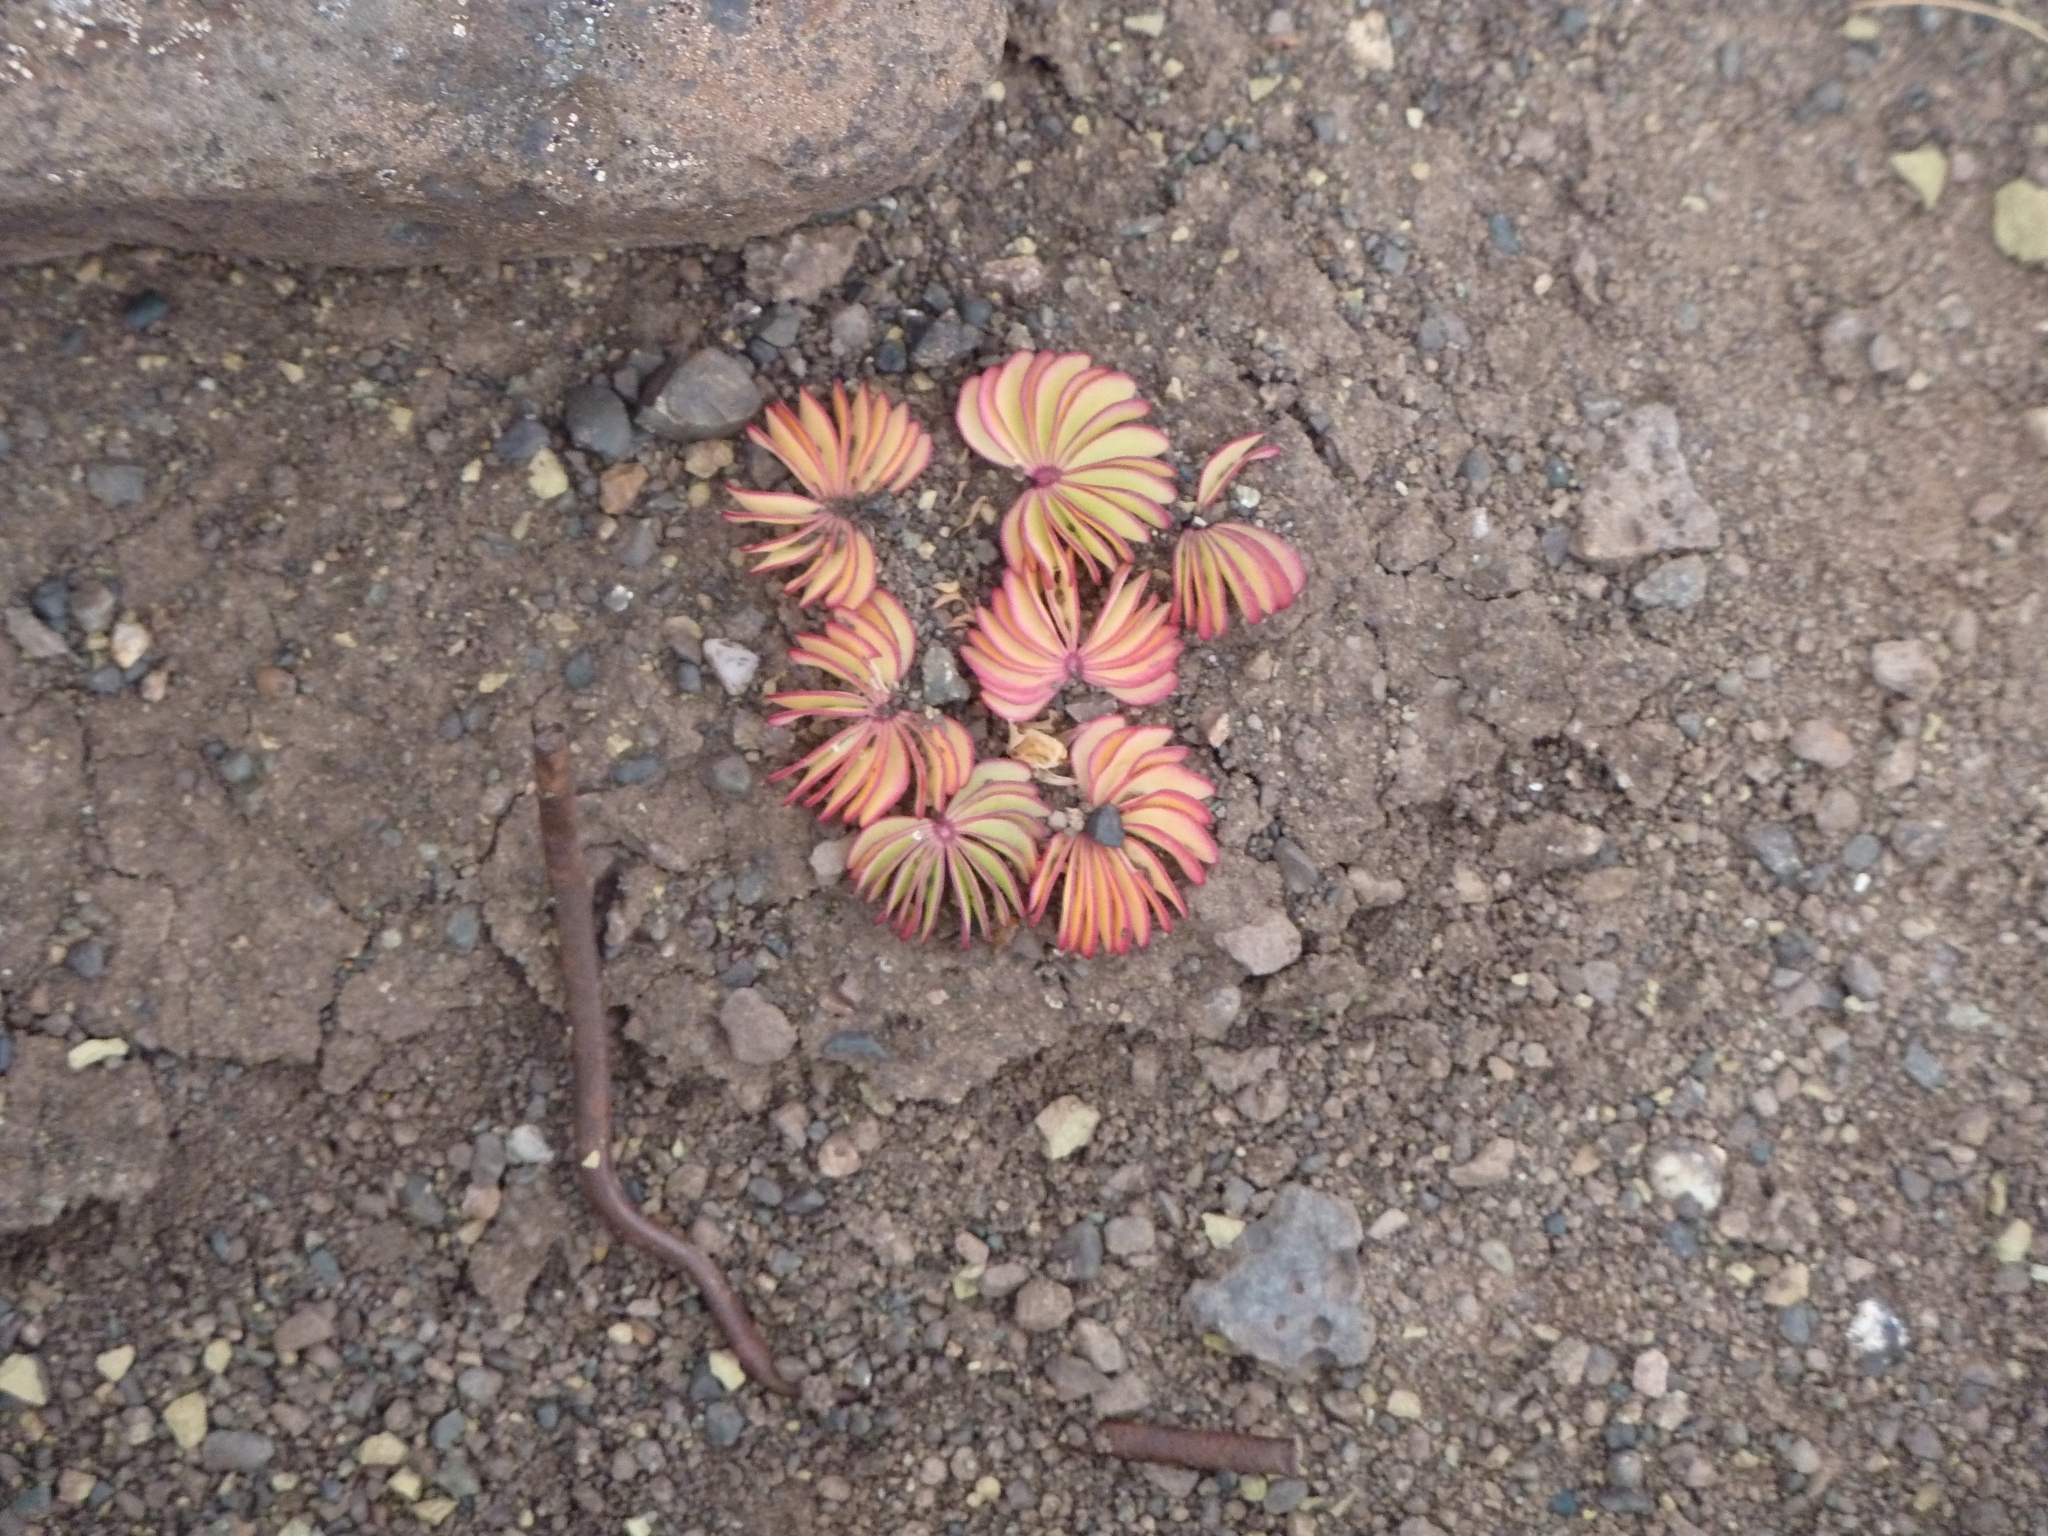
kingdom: Plantae
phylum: Tracheophyta
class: Magnoliopsida
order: Oxalidales
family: Oxalidaceae
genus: Oxalis
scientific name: Oxalis loricata
